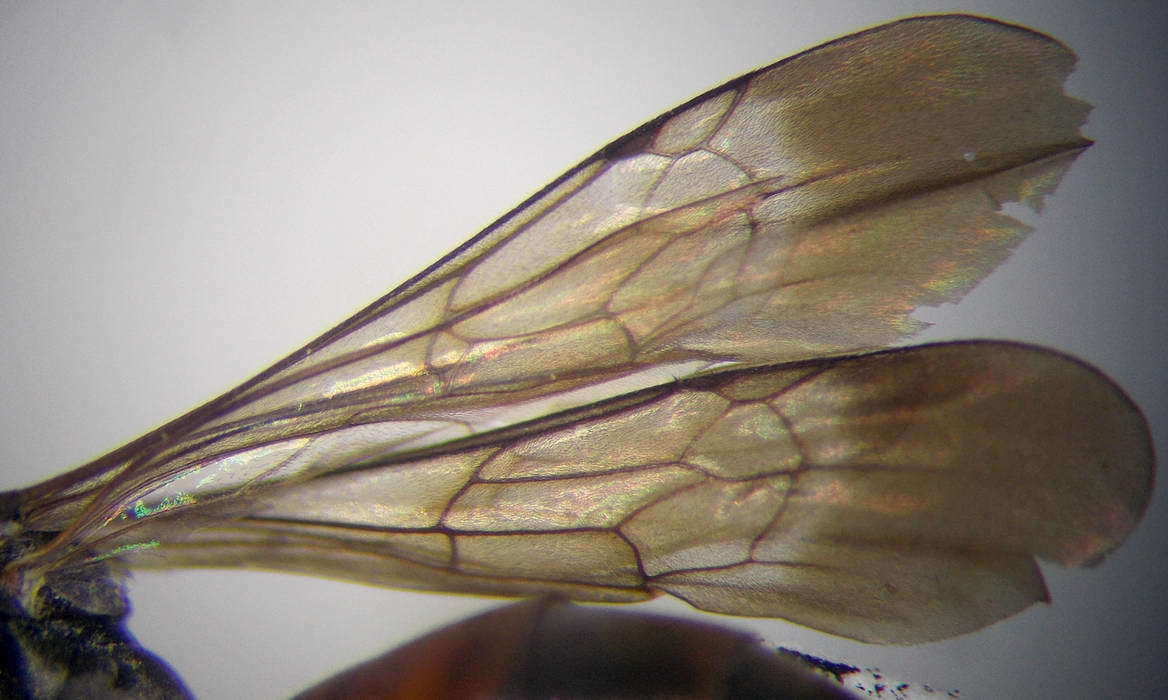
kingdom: Animalia
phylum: Arthropoda
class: Insecta
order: Hymenoptera
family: Pompilidae
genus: Tachyagetes
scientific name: Tachyagetes filicornis
